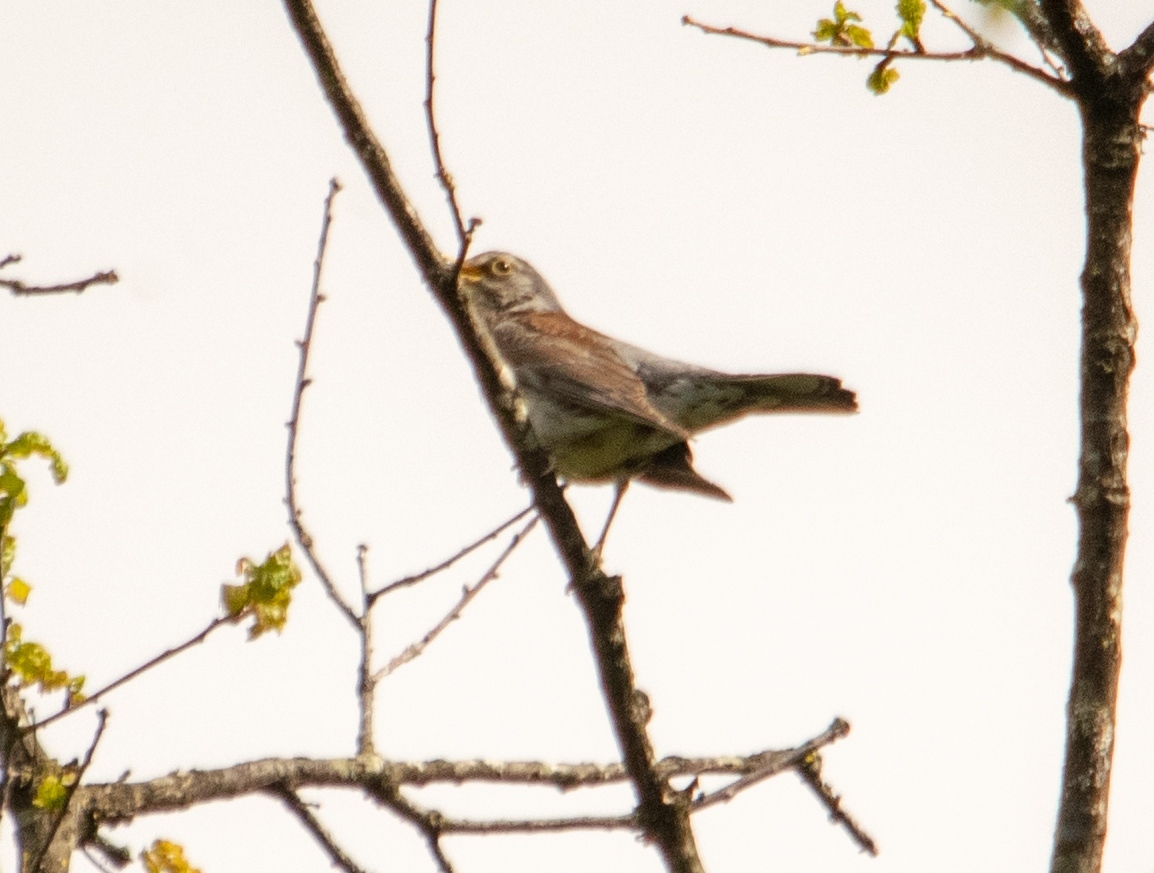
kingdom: Animalia
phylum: Chordata
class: Aves
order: Passeriformes
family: Turdidae
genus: Turdus
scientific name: Turdus pilaris
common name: Fieldfare
